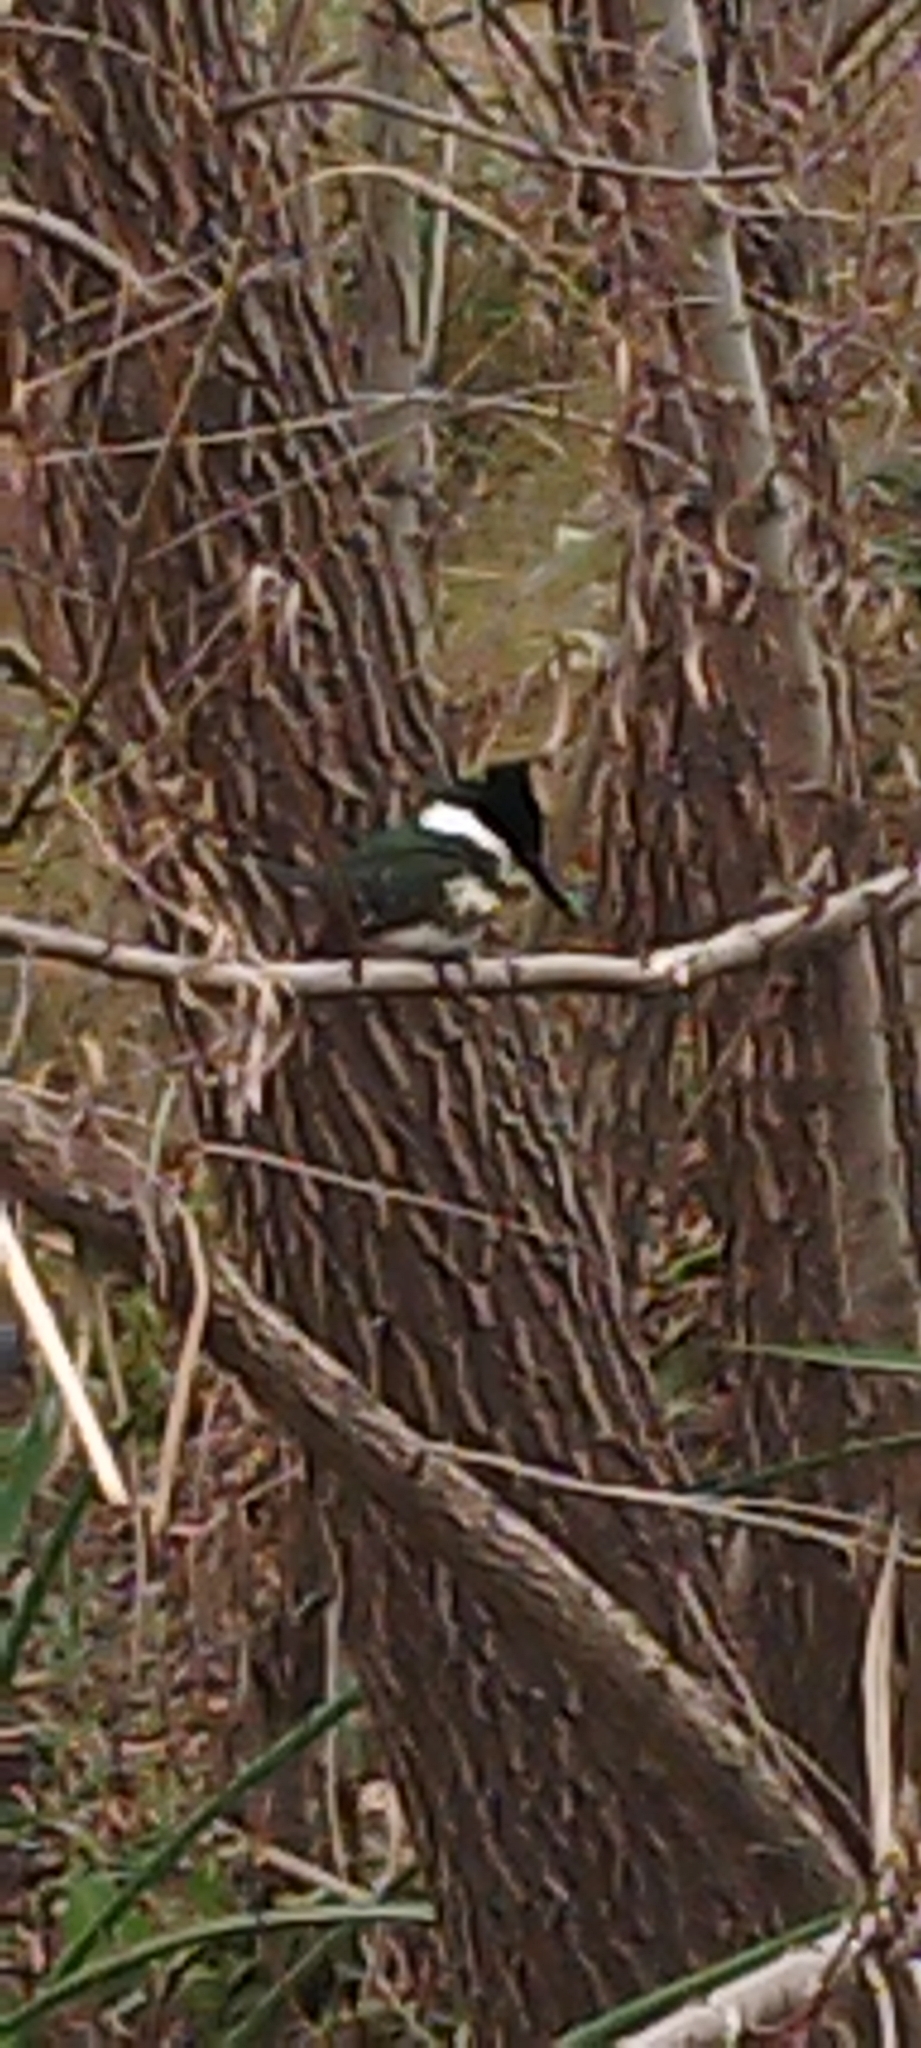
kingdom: Animalia
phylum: Chordata
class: Aves
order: Coraciiformes
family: Alcedinidae
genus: Chloroceryle
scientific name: Chloroceryle americana
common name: Green kingfisher
